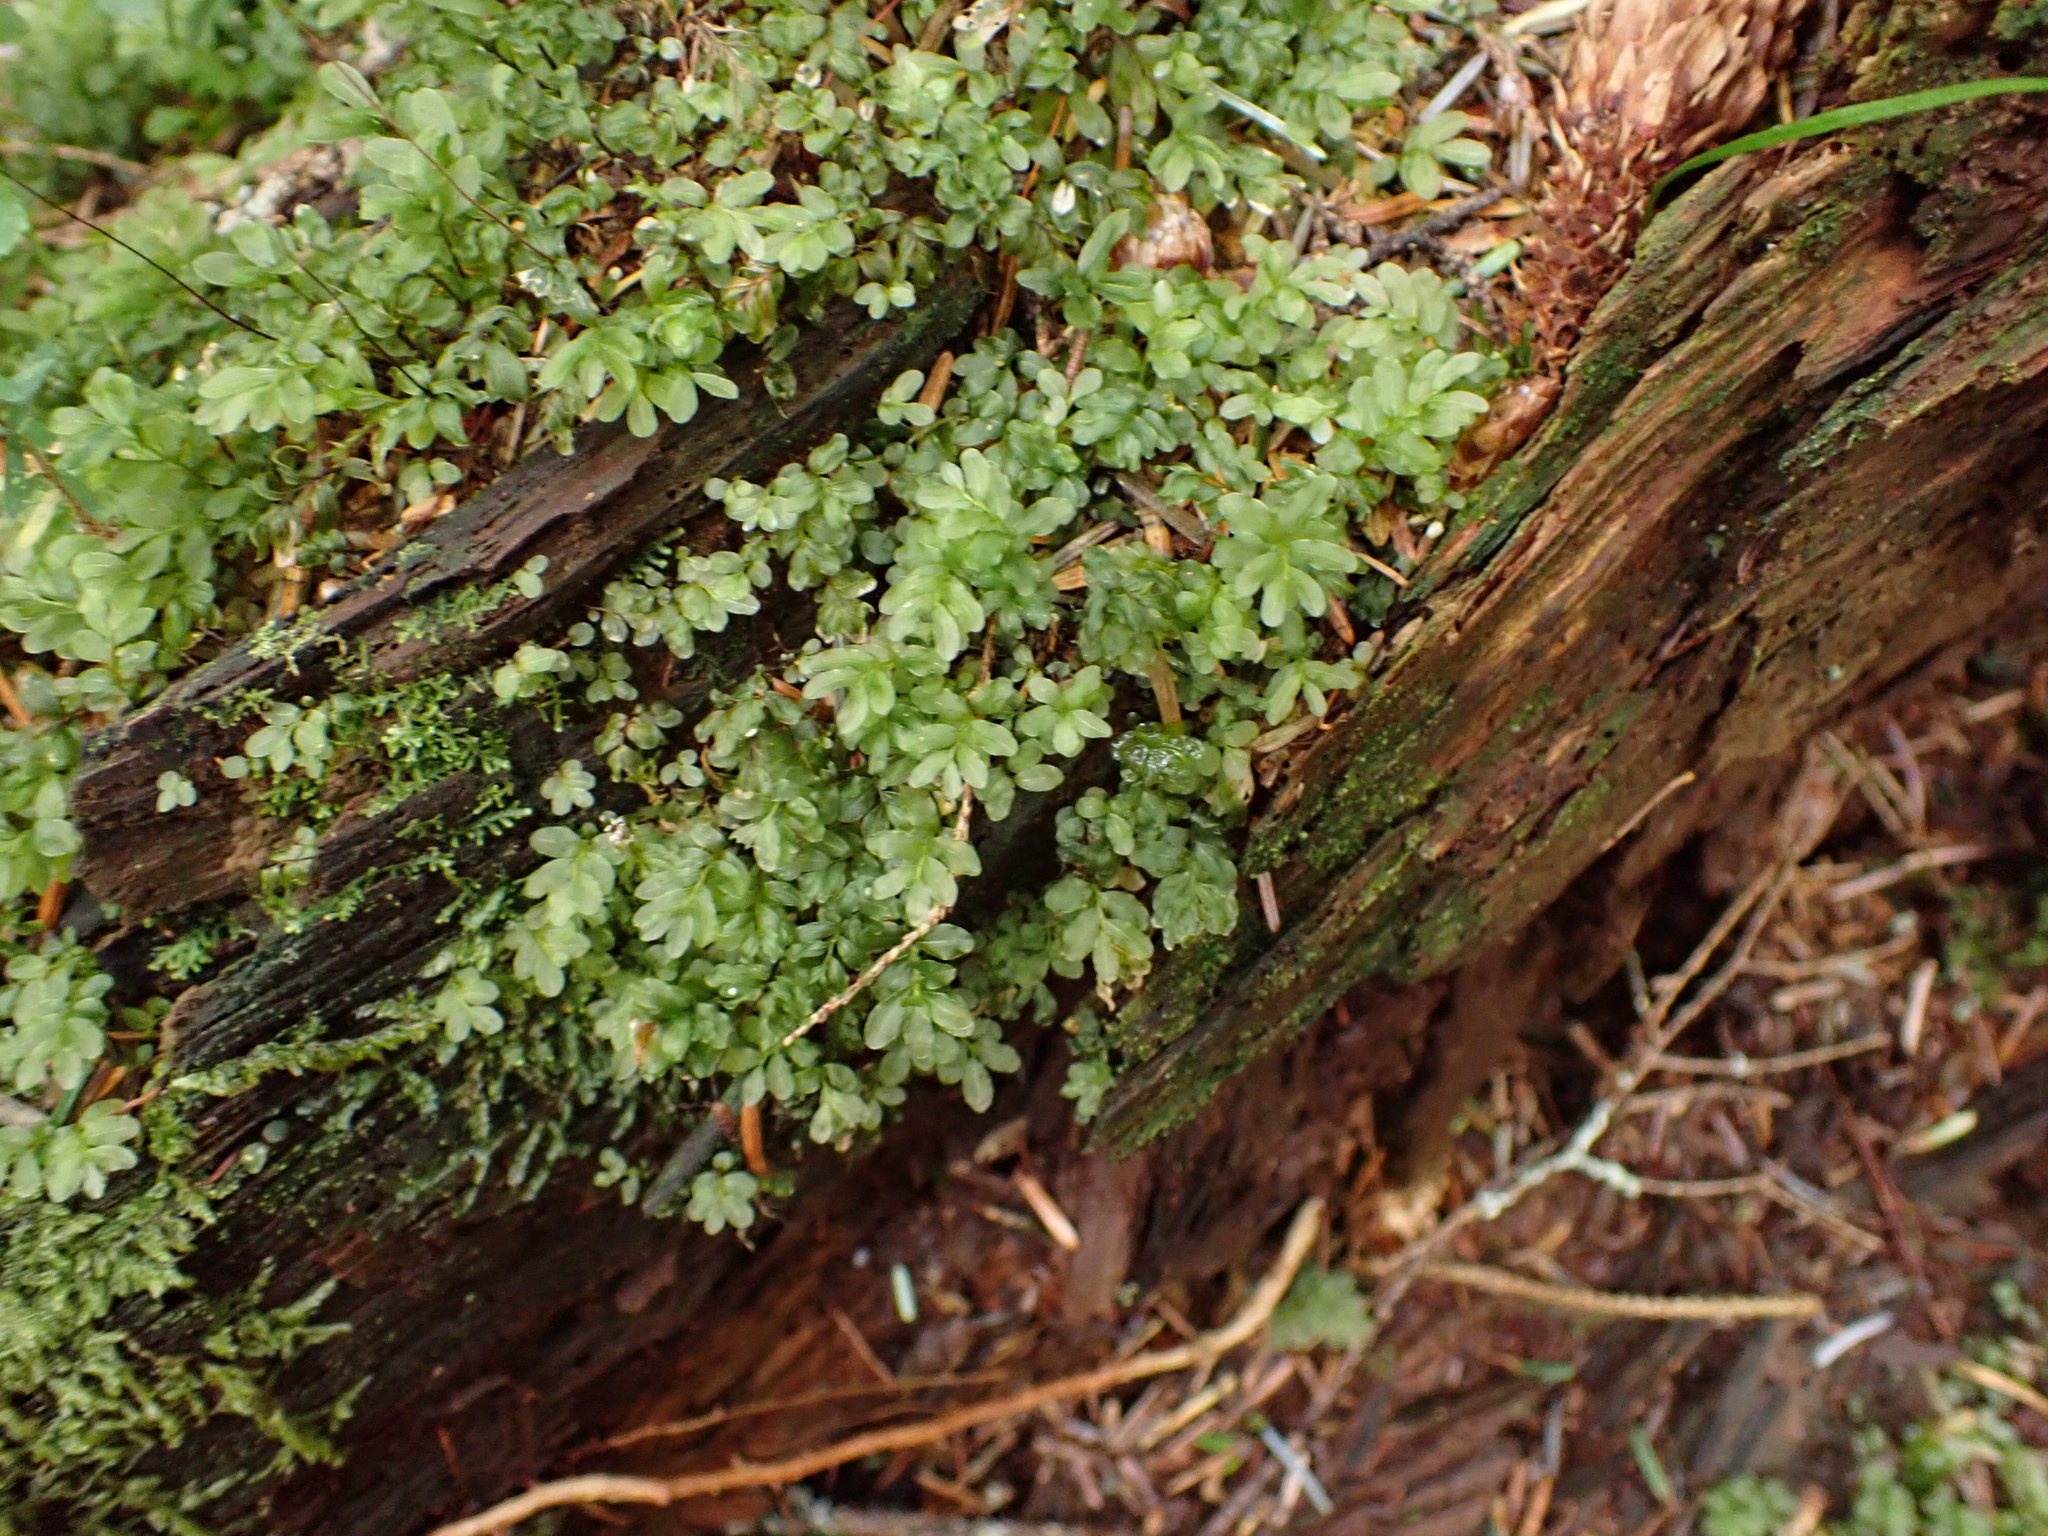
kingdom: Plantae
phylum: Bryophyta
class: Bryopsida
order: Bryales
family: Mniaceae
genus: Rhizomnium
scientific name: Rhizomnium glabrescens
